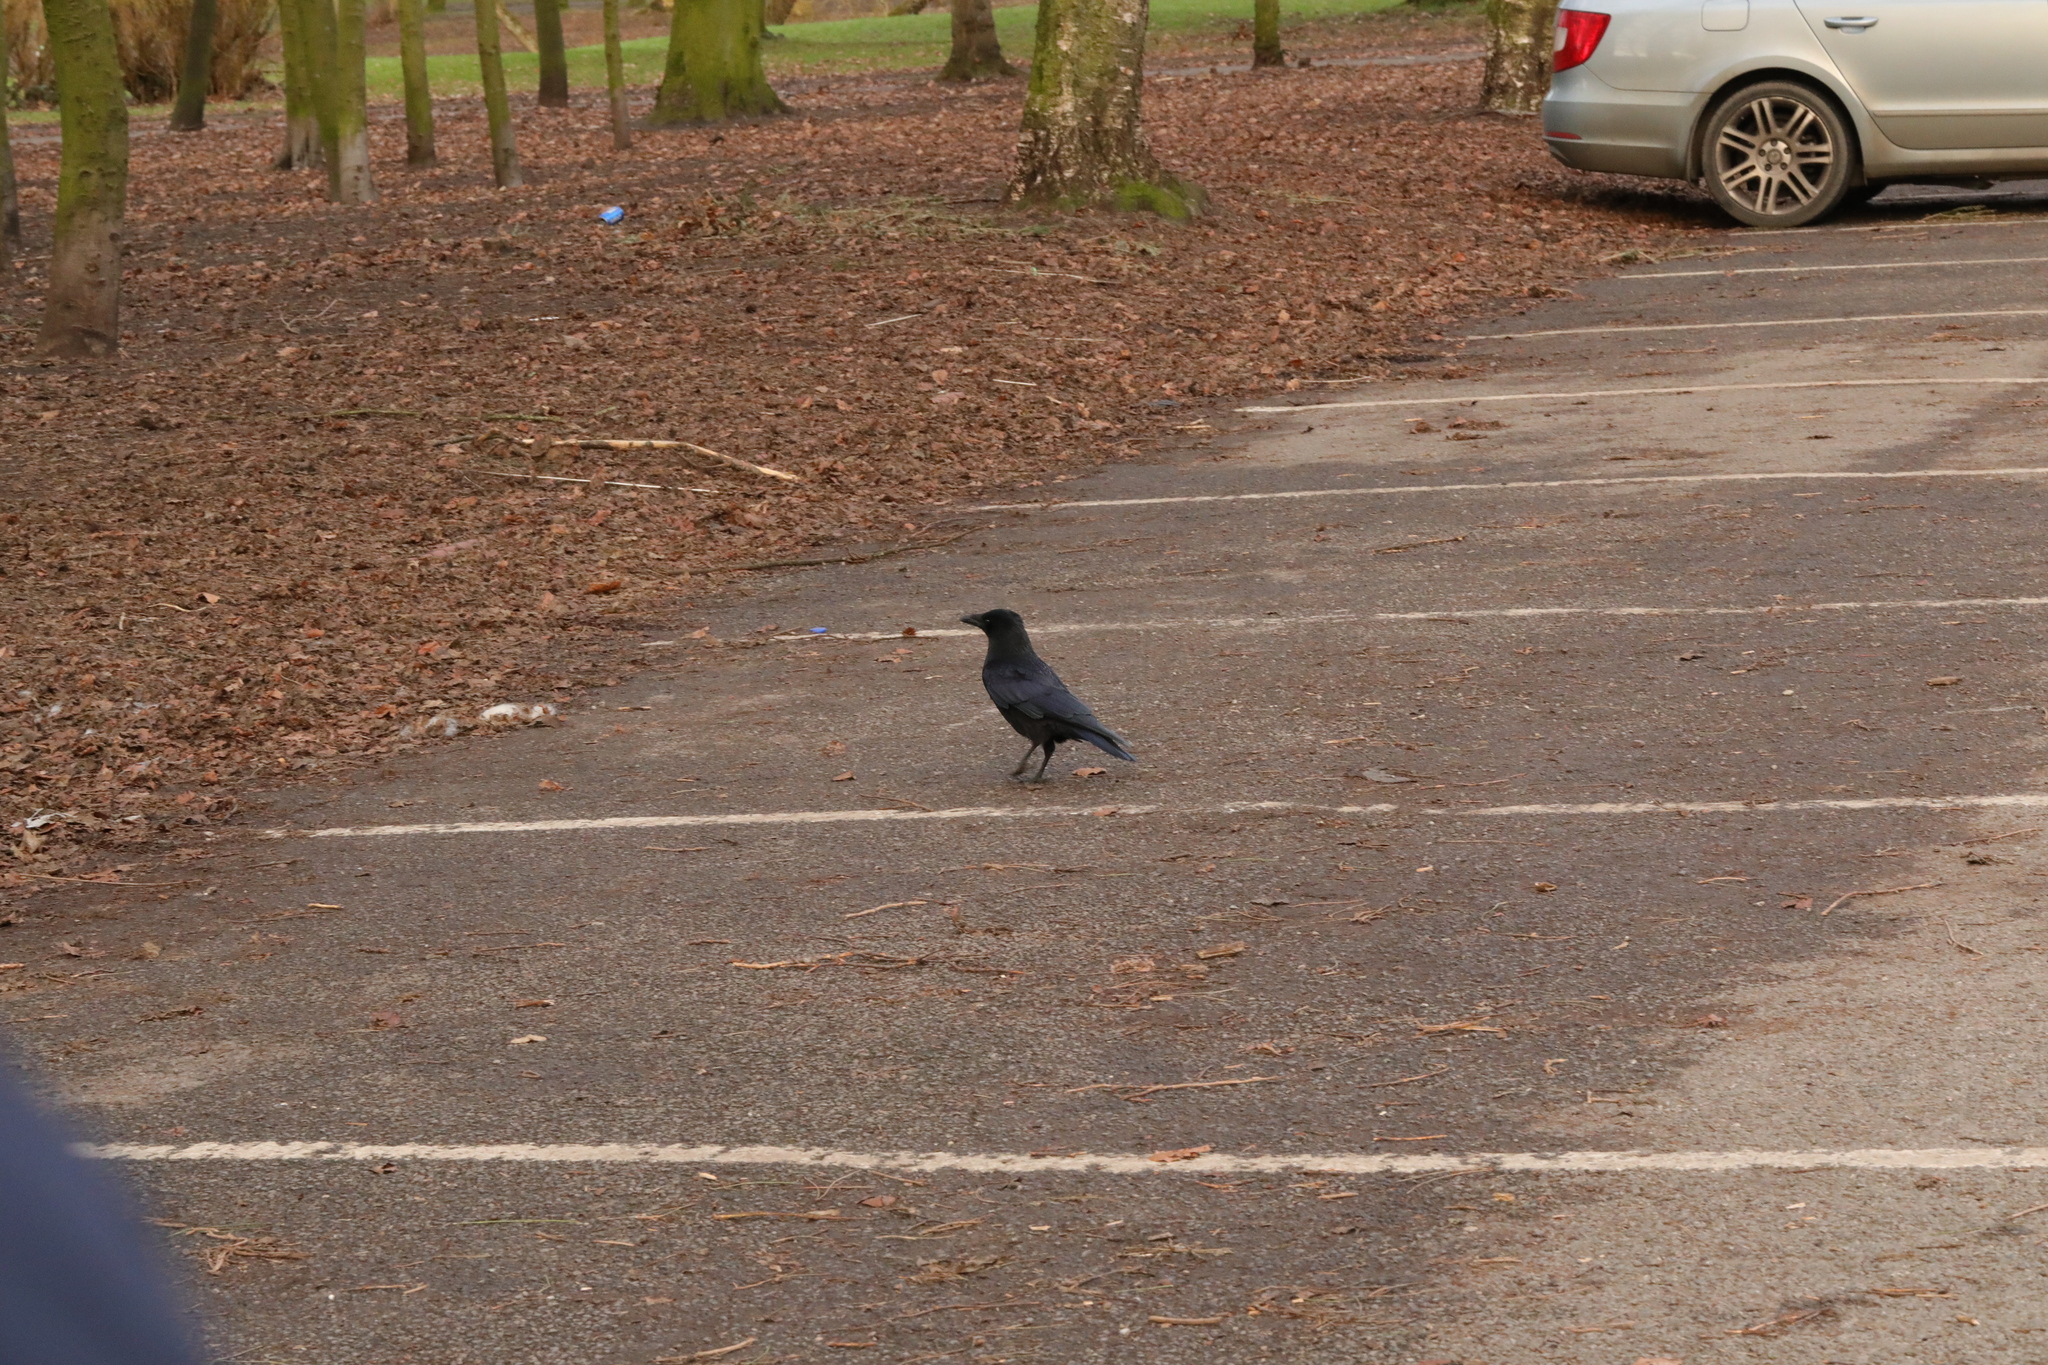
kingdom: Animalia
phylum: Chordata
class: Aves
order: Passeriformes
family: Corvidae
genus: Corvus
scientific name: Corvus corone
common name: Carrion crow
